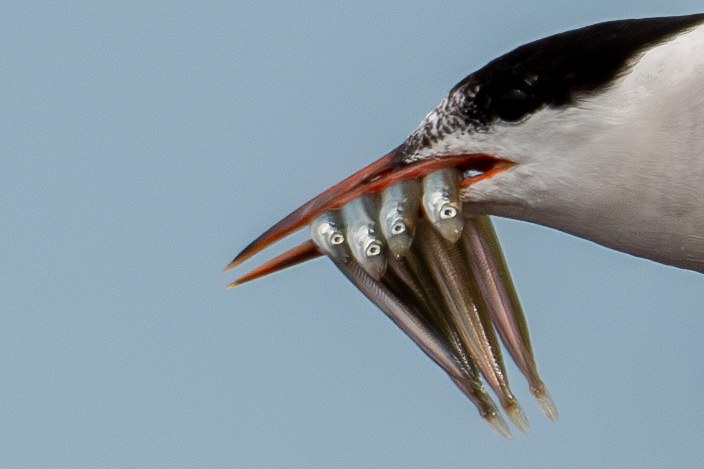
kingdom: Animalia
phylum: Chordata
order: Perciformes
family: Ammodytidae
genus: Ammodytes
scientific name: Ammodytes
